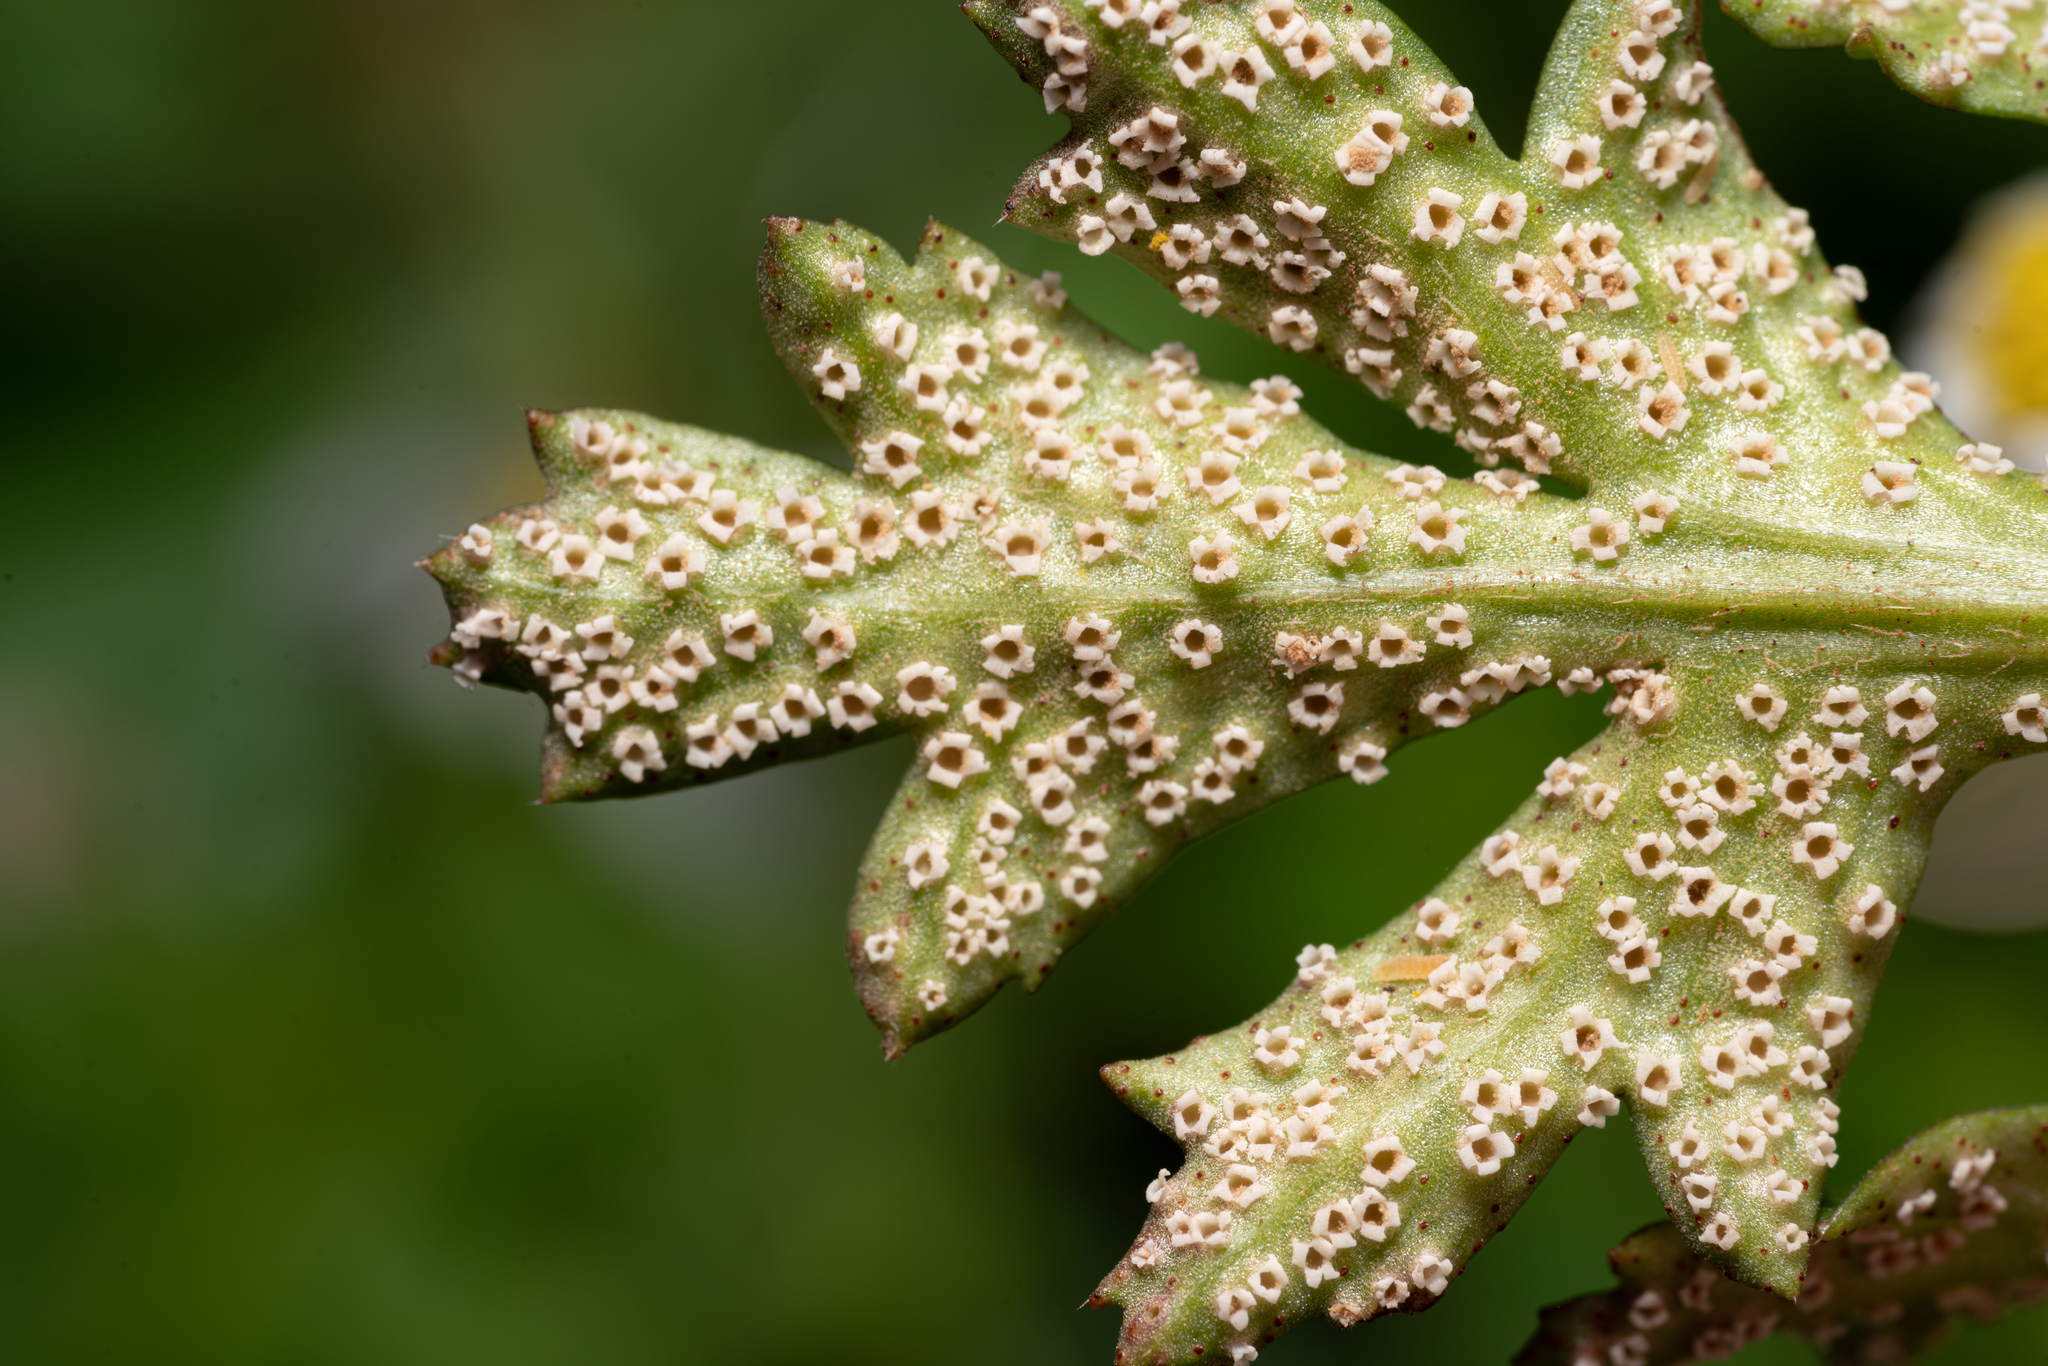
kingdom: Fungi
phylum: Basidiomycota
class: Pucciniomycetes
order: Pucciniales
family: Tranzscheliaceae
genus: Tranzschelia
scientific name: Tranzschelia pruni-spinosae
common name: Blackthorn rust
